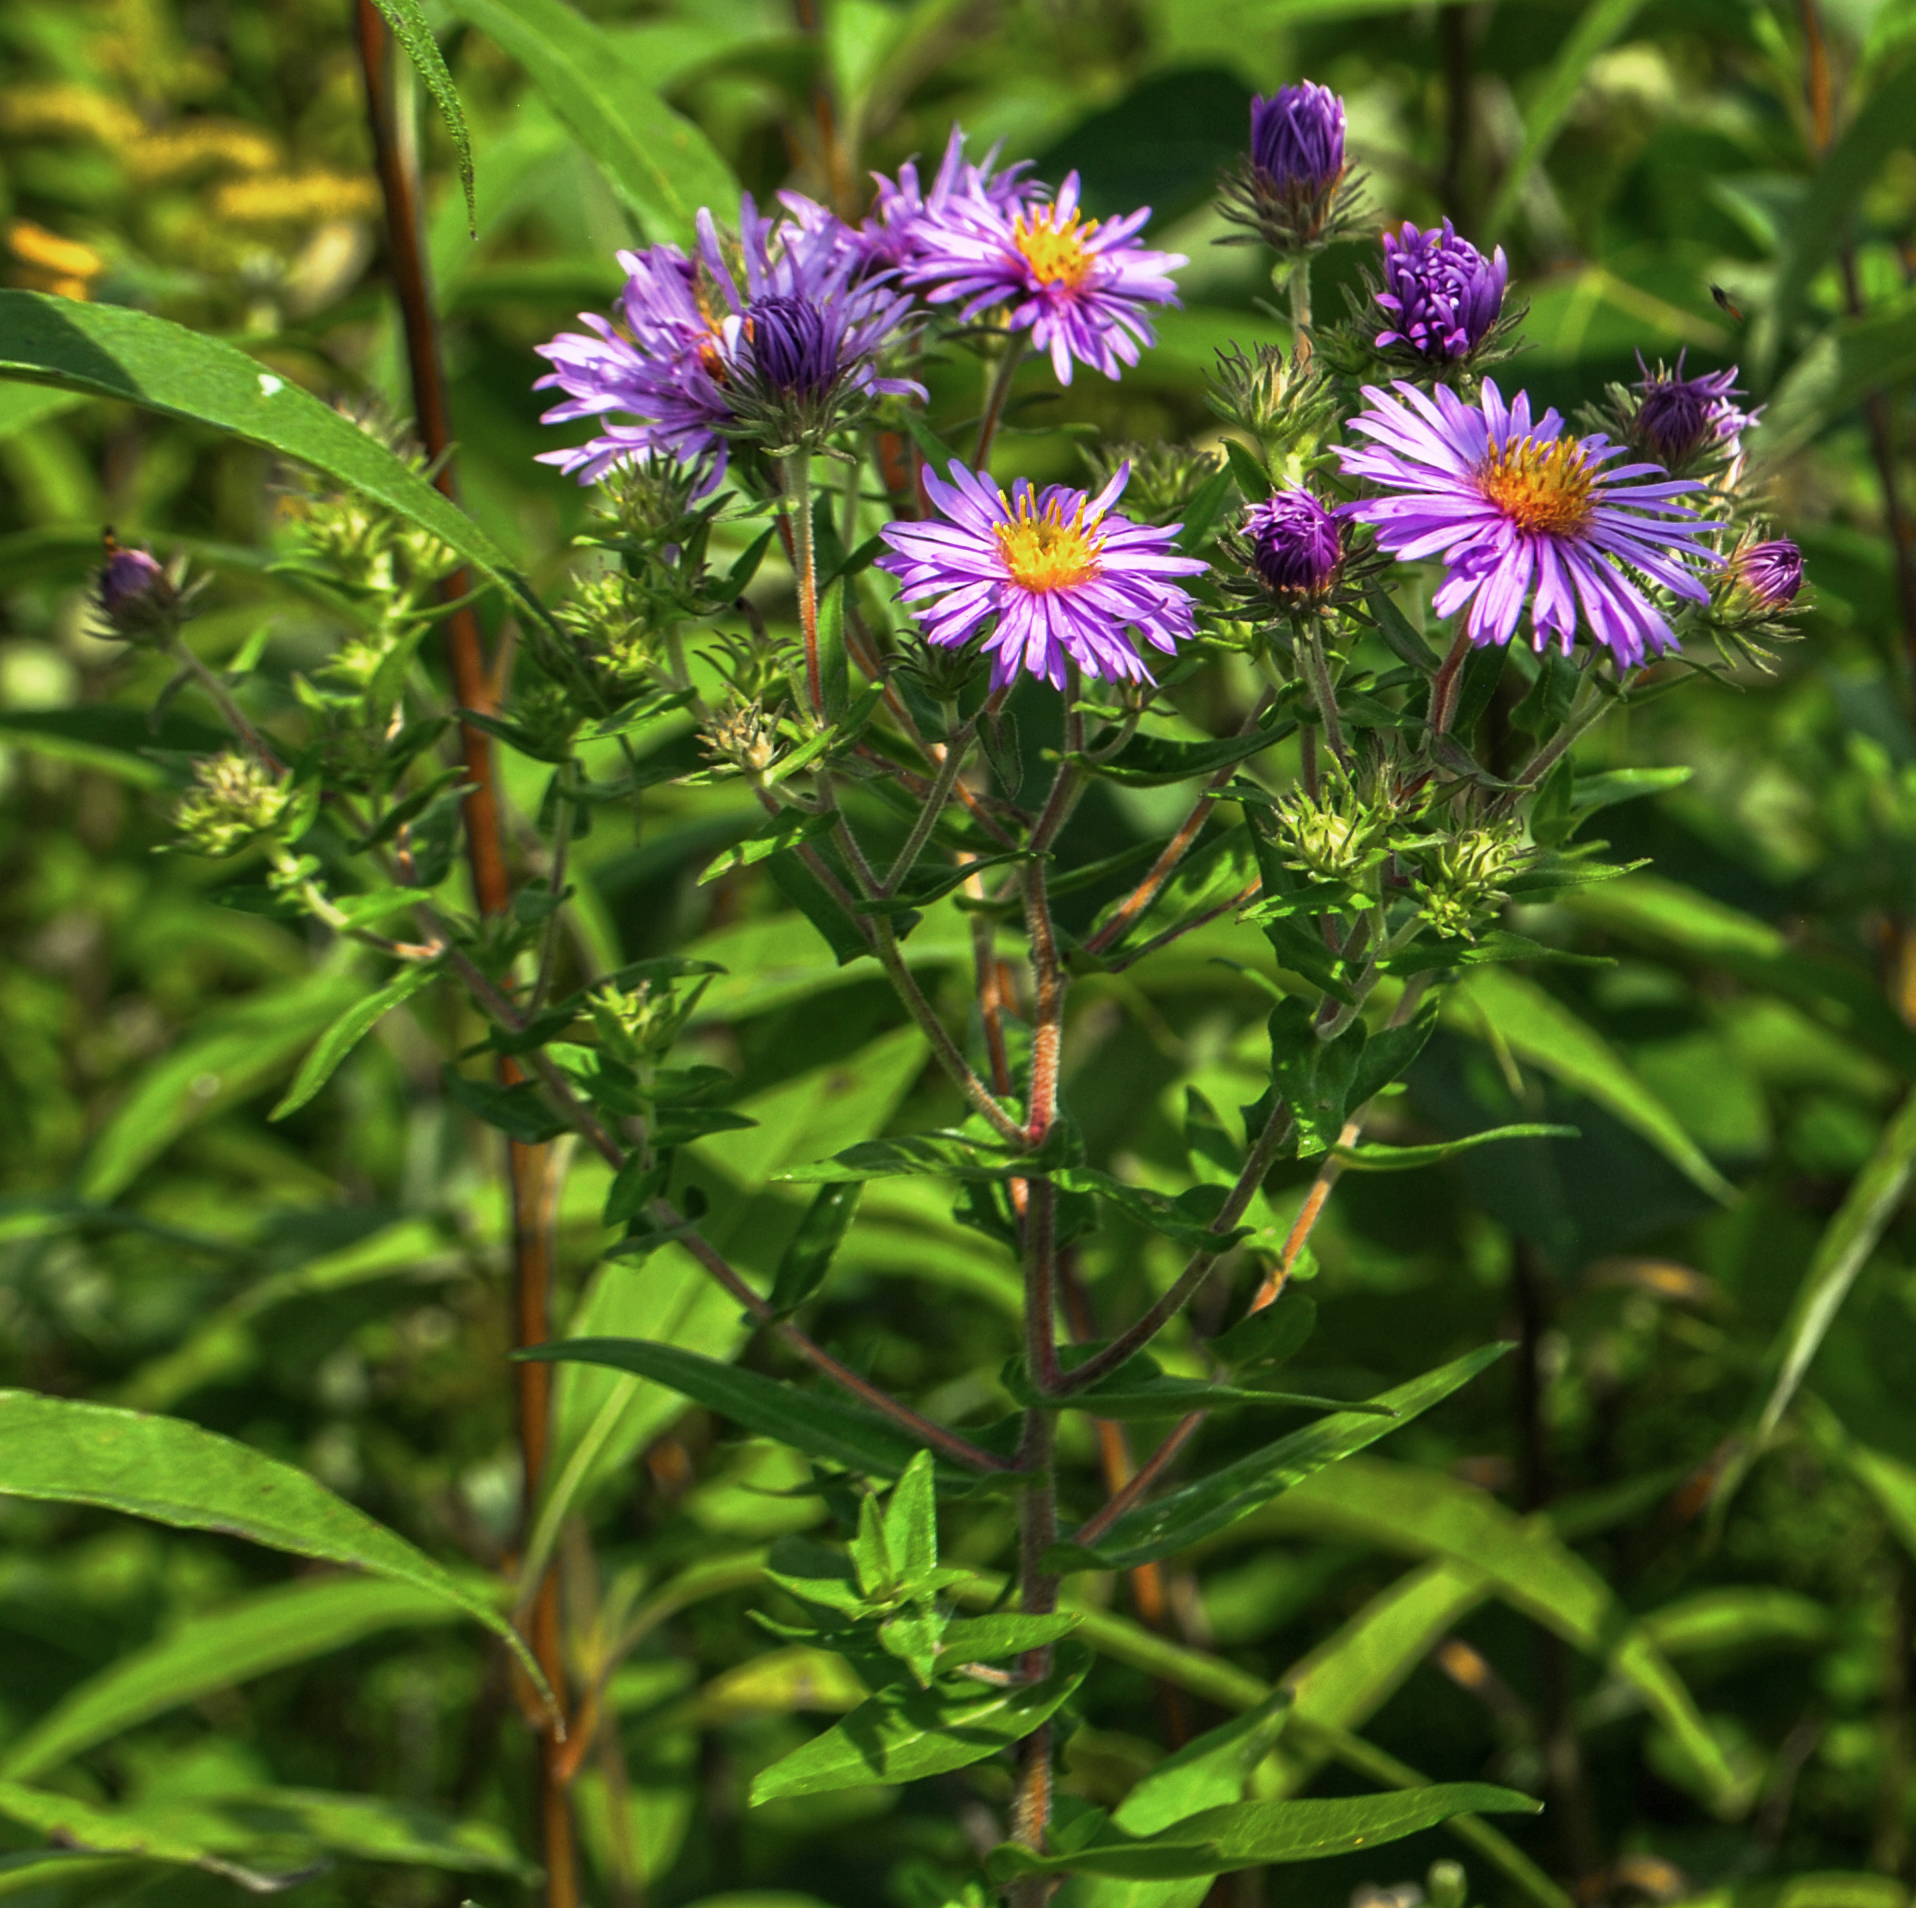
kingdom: Plantae
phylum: Tracheophyta
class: Magnoliopsida
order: Asterales
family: Asteraceae
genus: Symphyotrichum
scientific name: Symphyotrichum novae-angliae
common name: Michaelmas daisy
